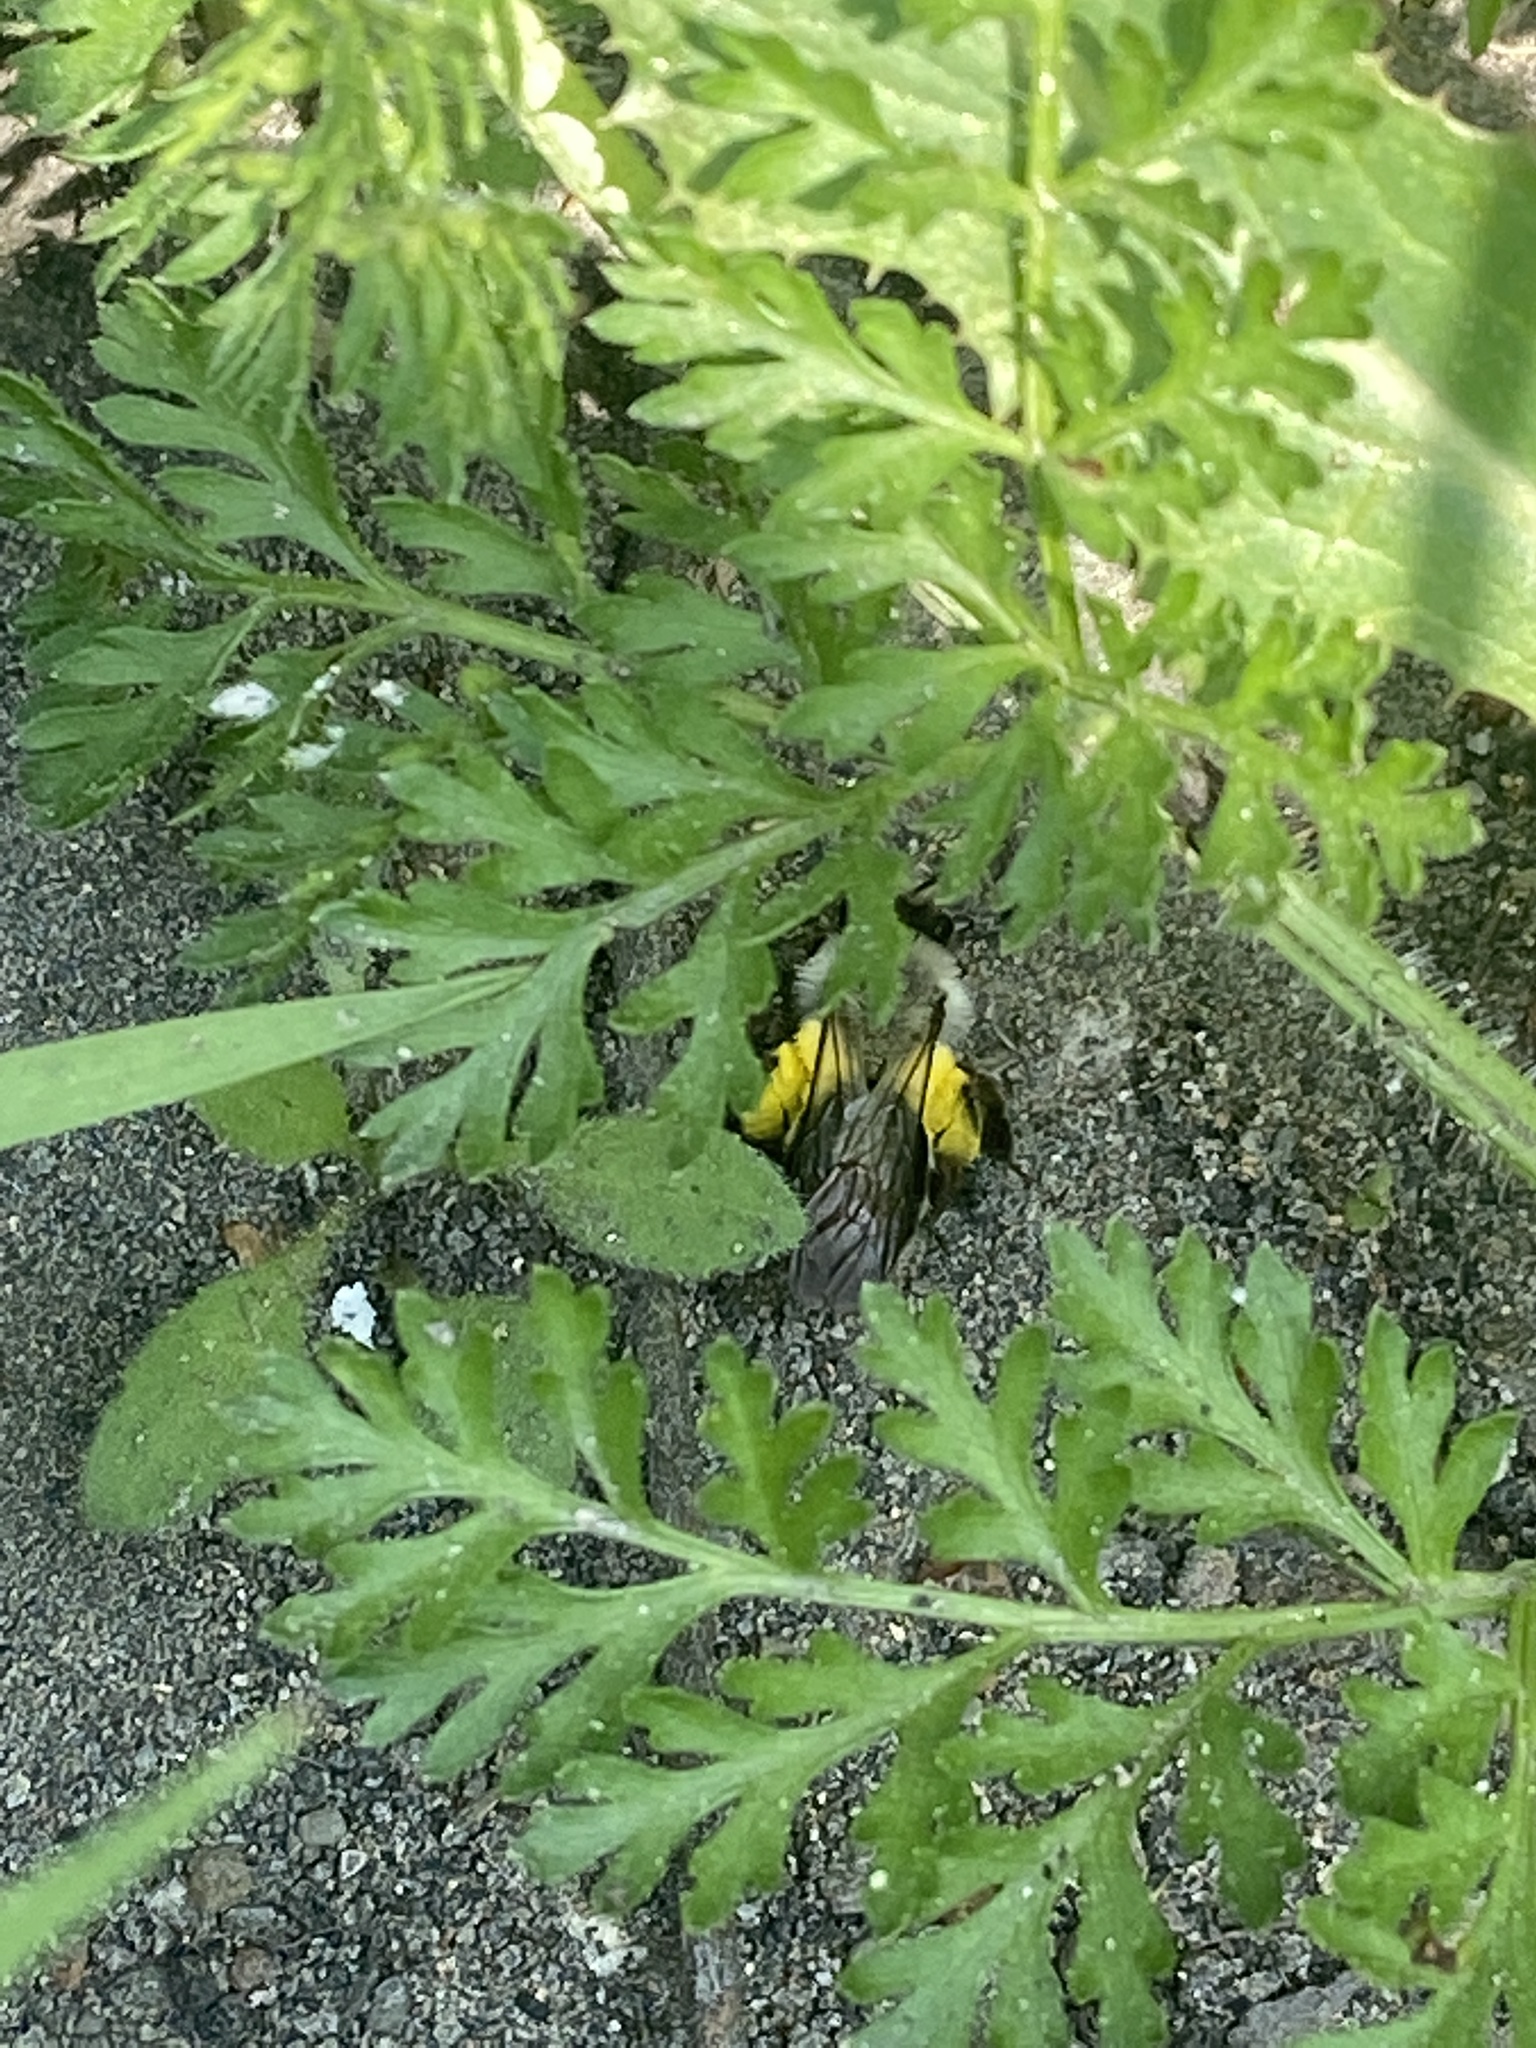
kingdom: Animalia
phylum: Arthropoda
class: Insecta
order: Hymenoptera
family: Andrenidae
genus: Andrena
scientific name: Andrena vaga
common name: Grey-backed mining bee
